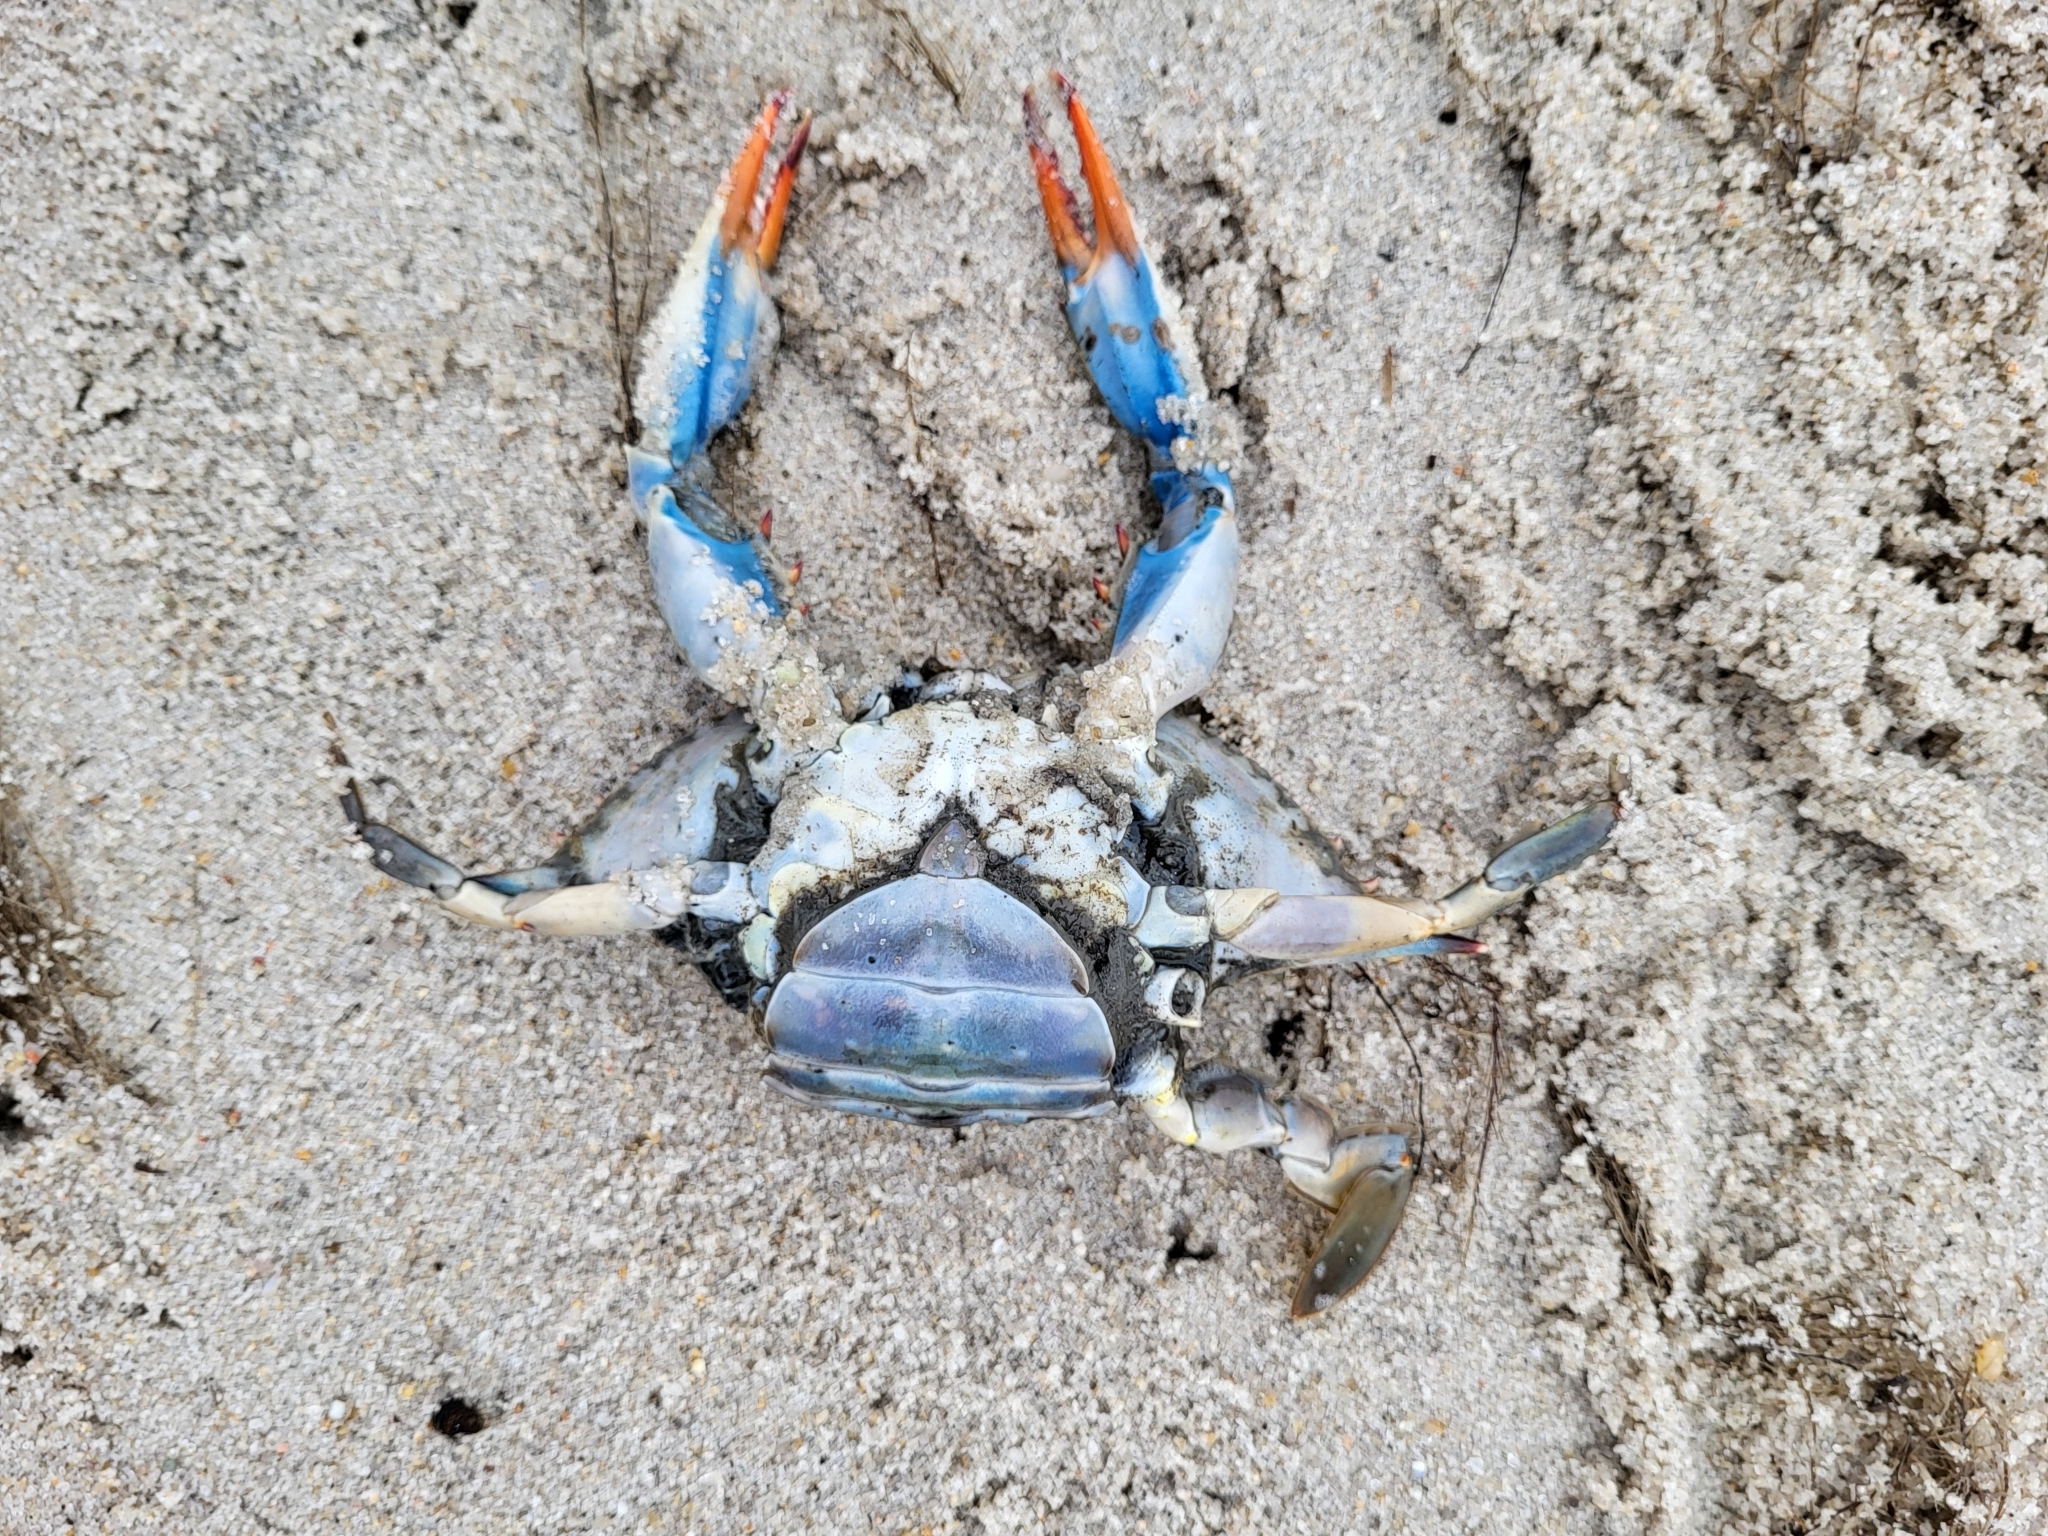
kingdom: Animalia
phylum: Arthropoda
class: Malacostraca
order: Decapoda
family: Portunidae
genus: Callinectes
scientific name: Callinectes sapidus
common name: Blue crab
